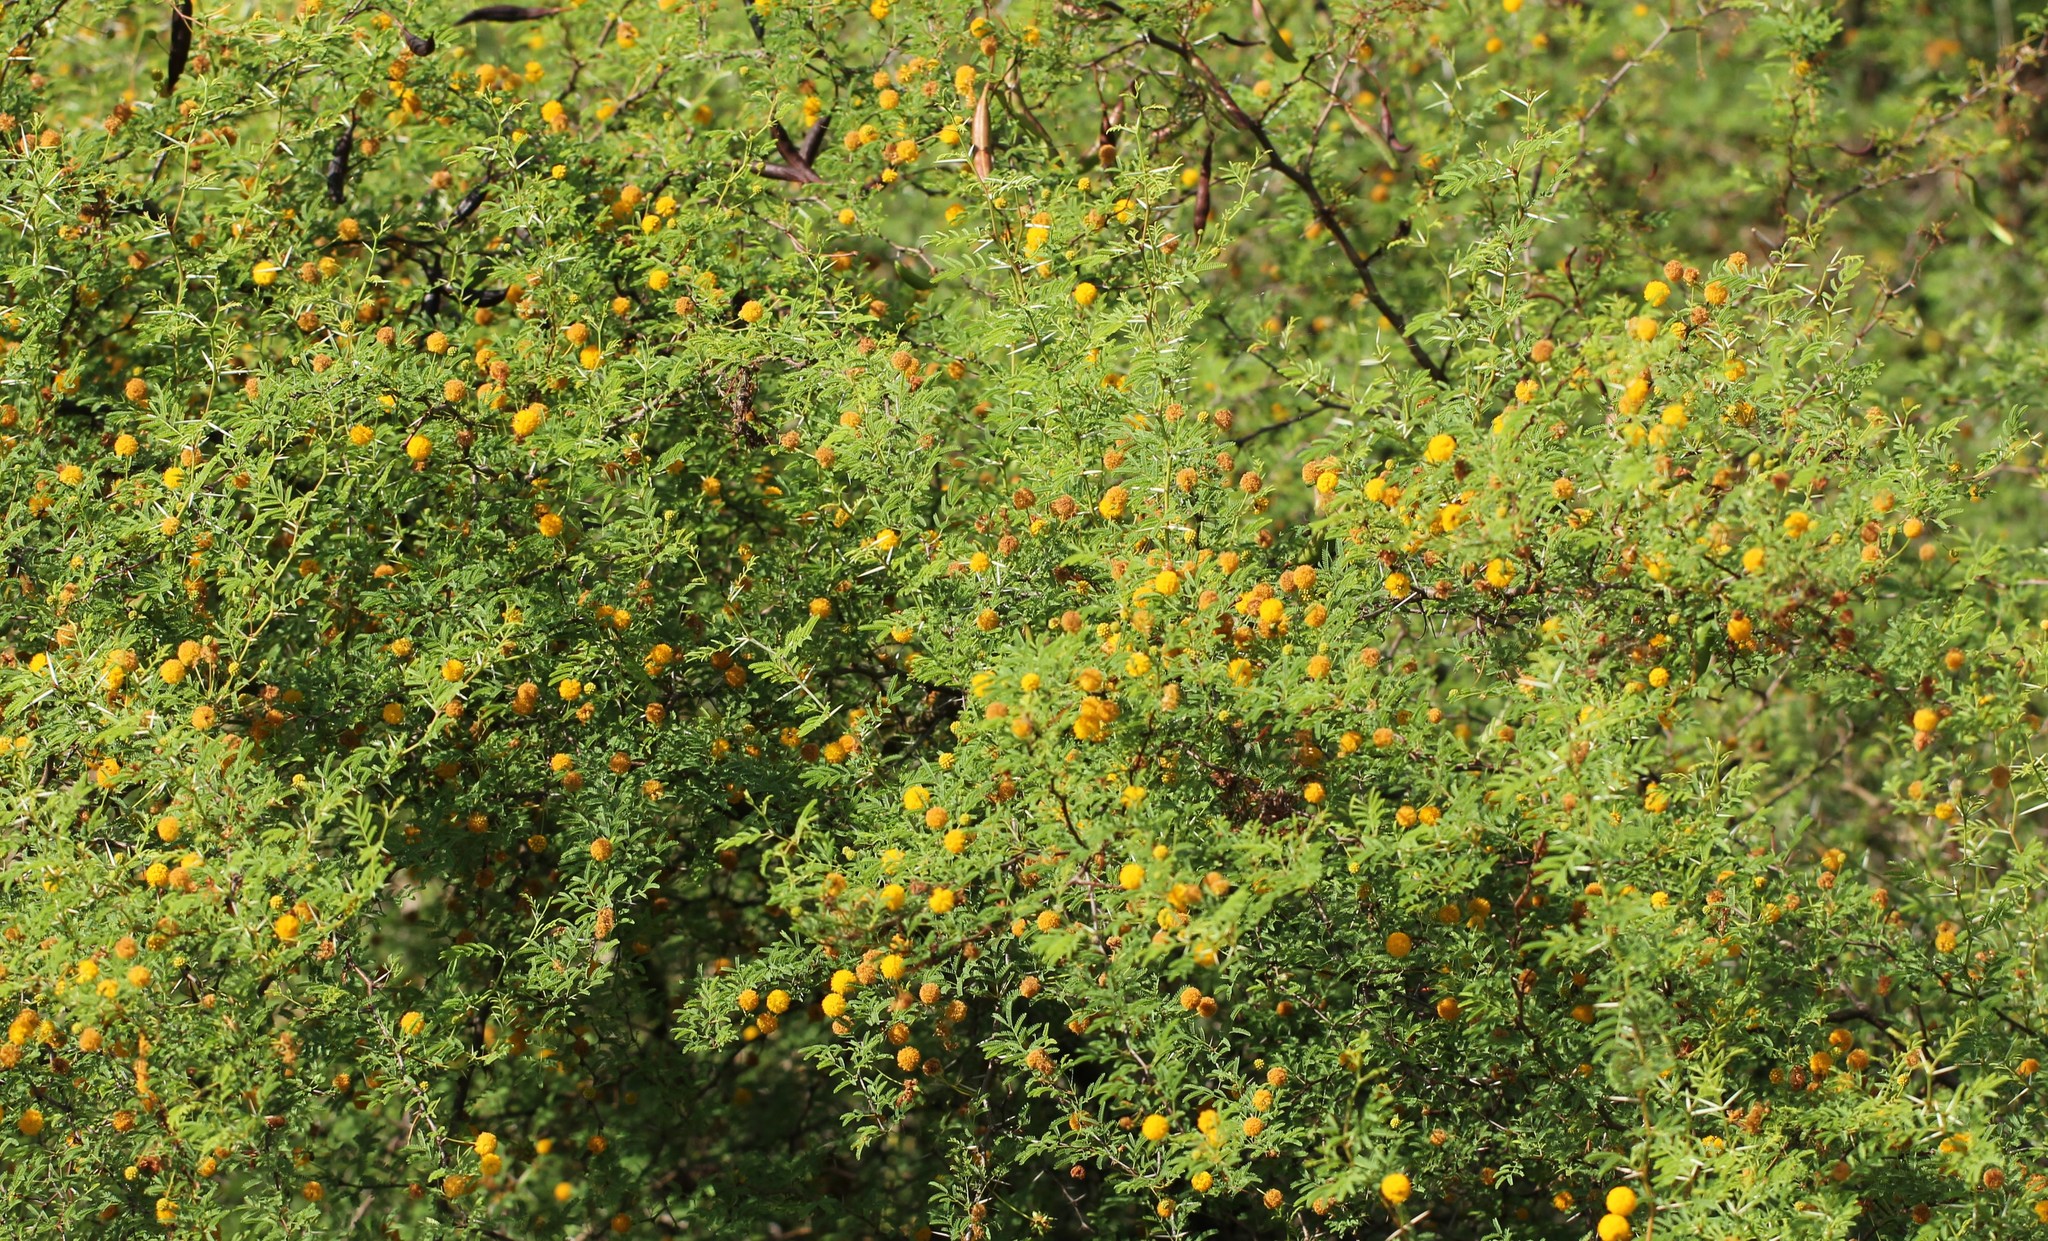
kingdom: Plantae
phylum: Tracheophyta
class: Magnoliopsida
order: Fabales
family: Fabaceae
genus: Vachellia
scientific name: Vachellia farnesiana
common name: Sweet acacia
